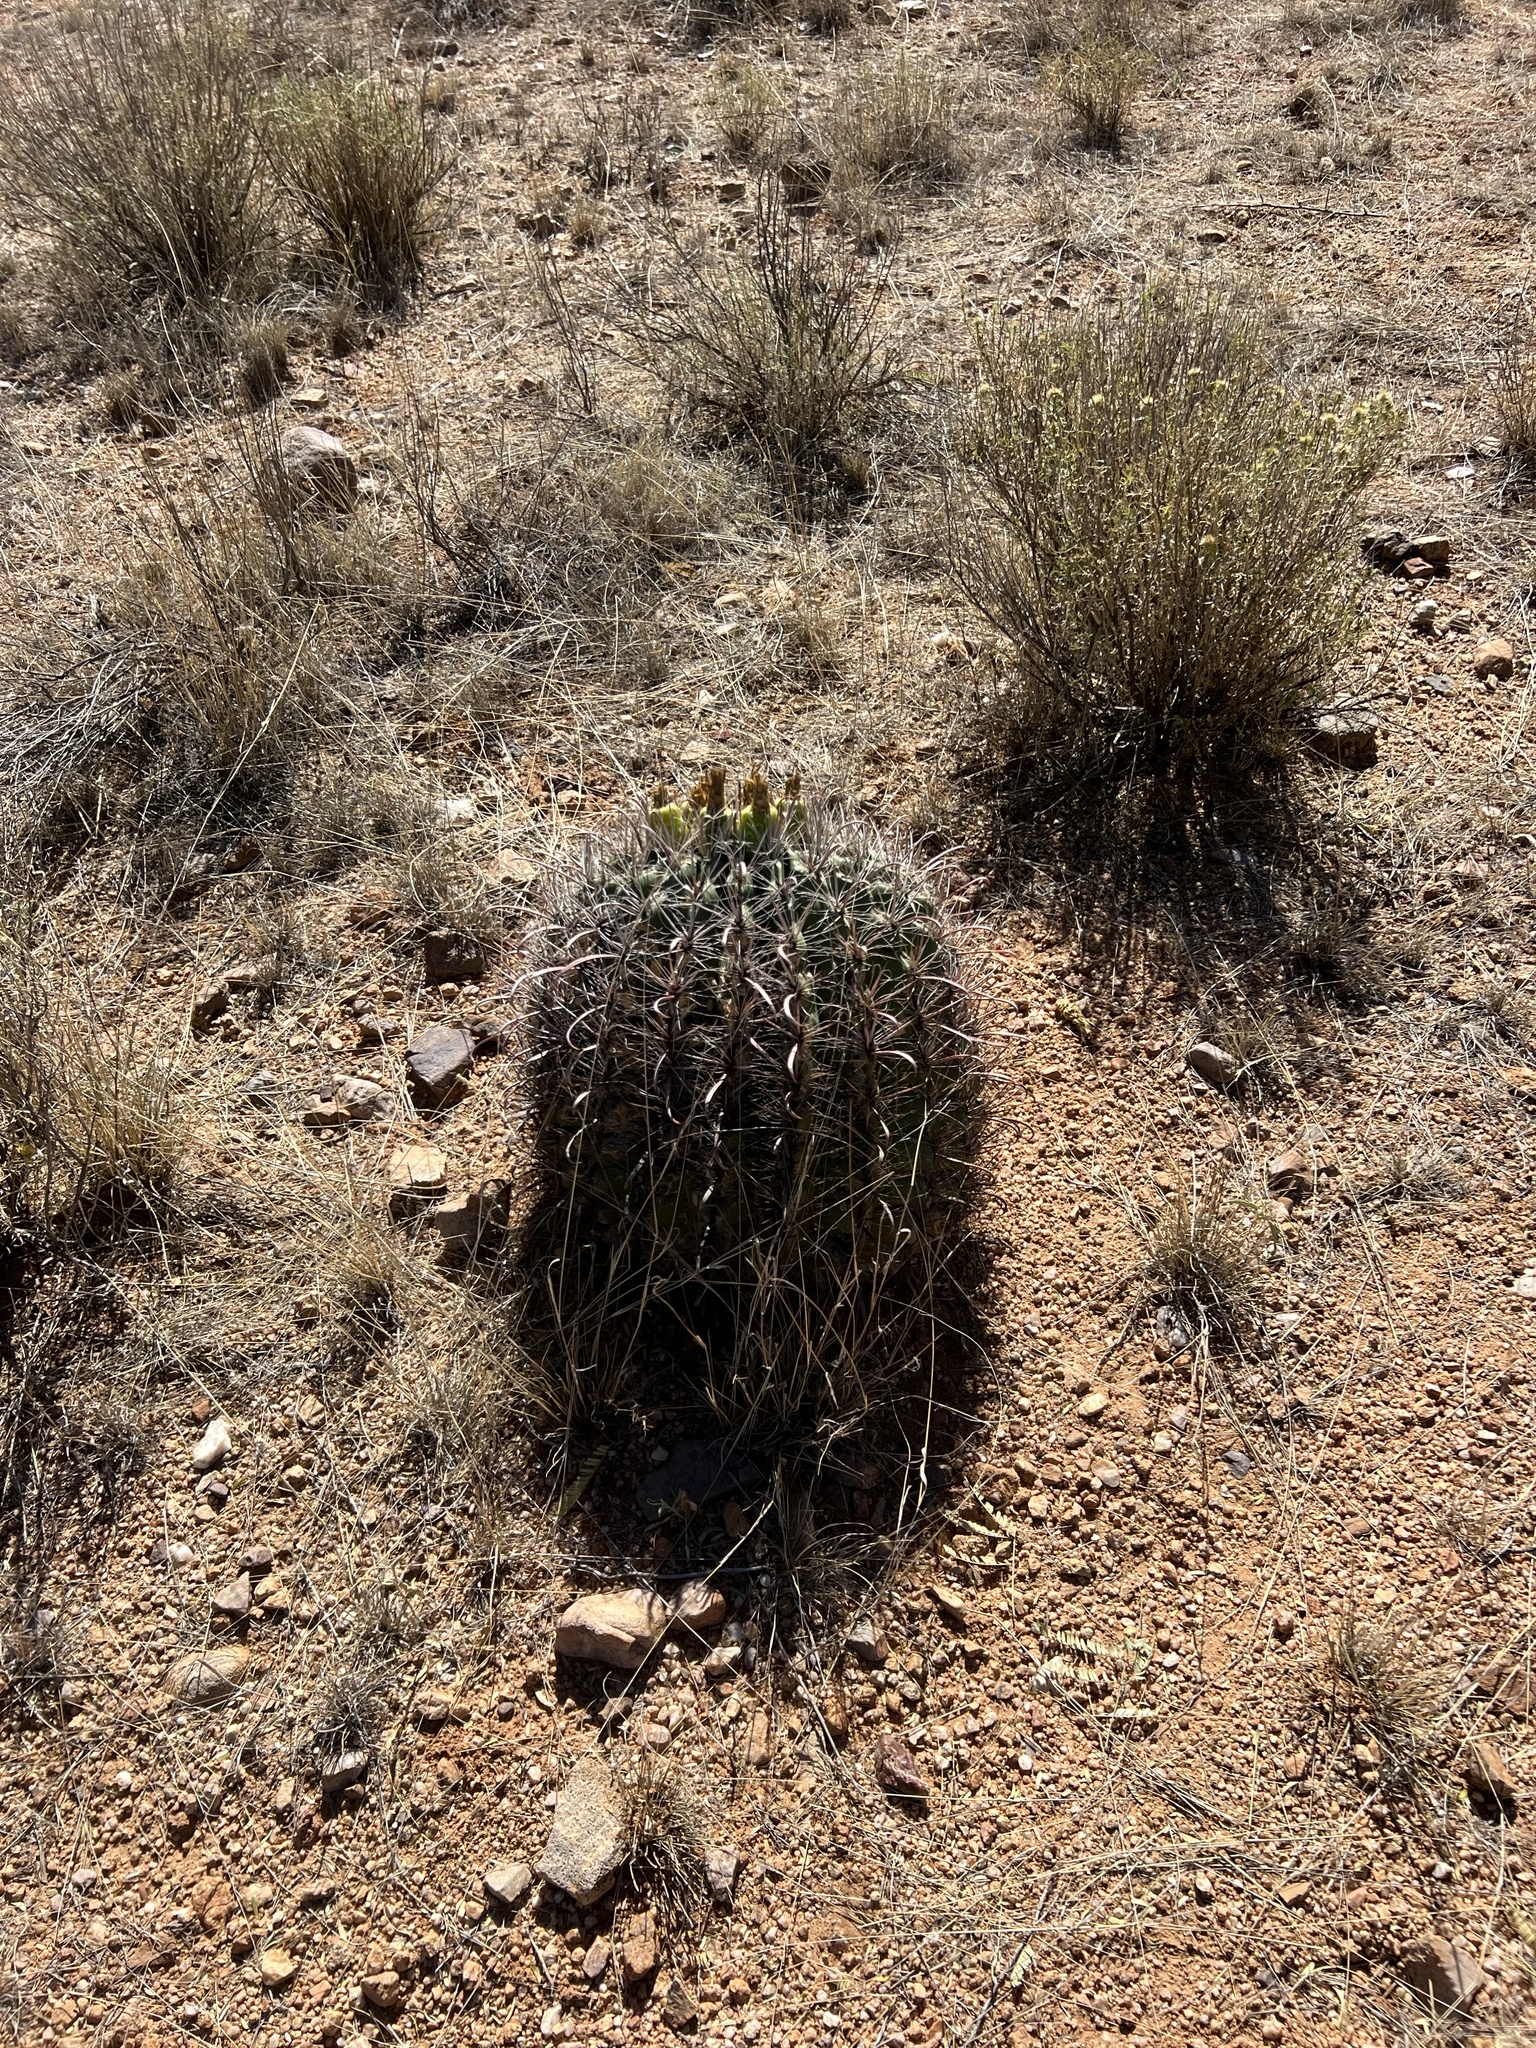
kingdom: Plantae
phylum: Tracheophyta
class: Magnoliopsida
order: Caryophyllales
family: Cactaceae
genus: Ferocactus
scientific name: Ferocactus wislizeni
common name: Candy barrel cactus
